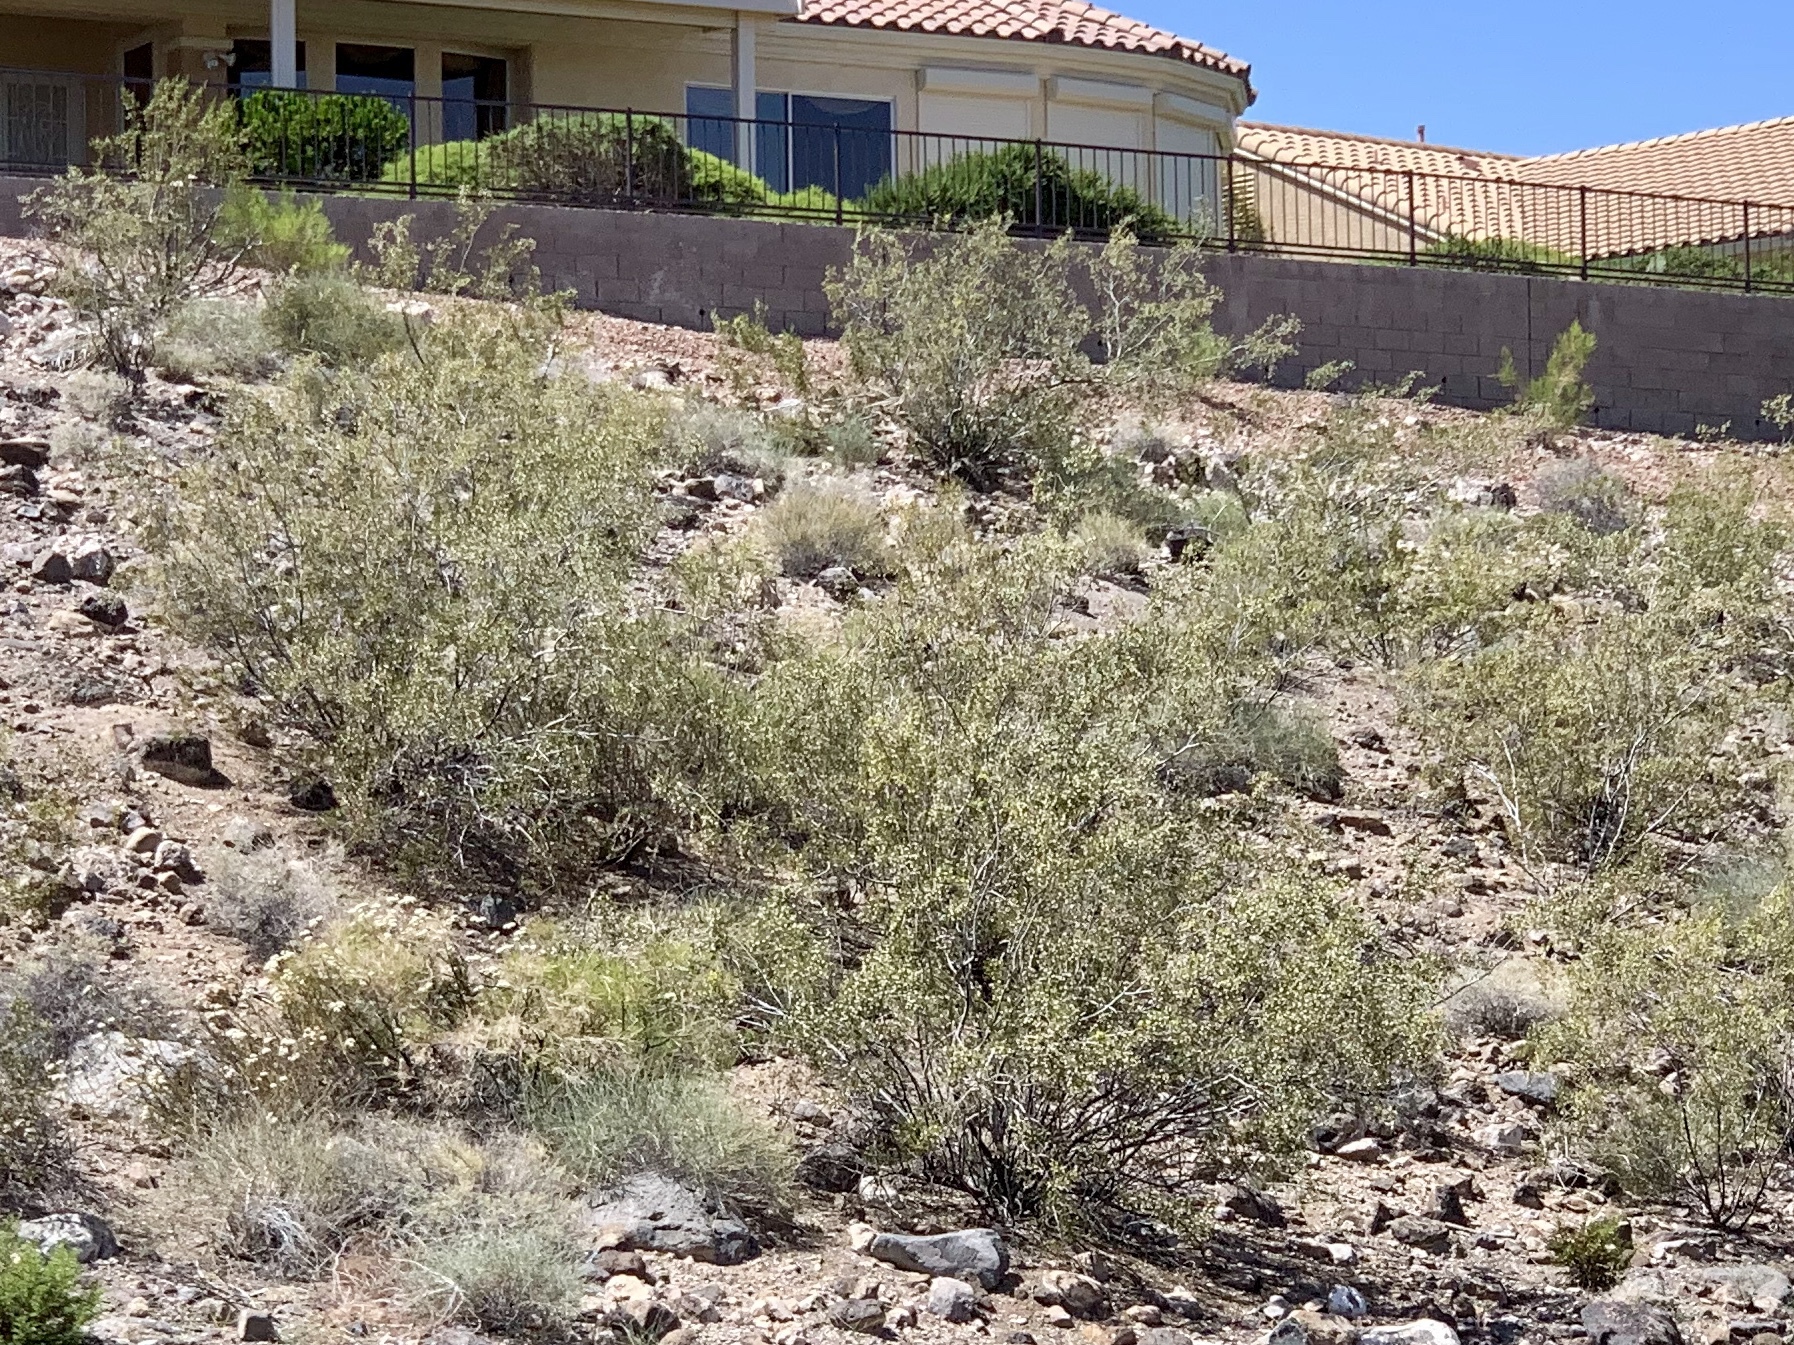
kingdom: Plantae
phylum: Tracheophyta
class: Magnoliopsida
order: Zygophyllales
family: Zygophyllaceae
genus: Larrea
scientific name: Larrea tridentata
